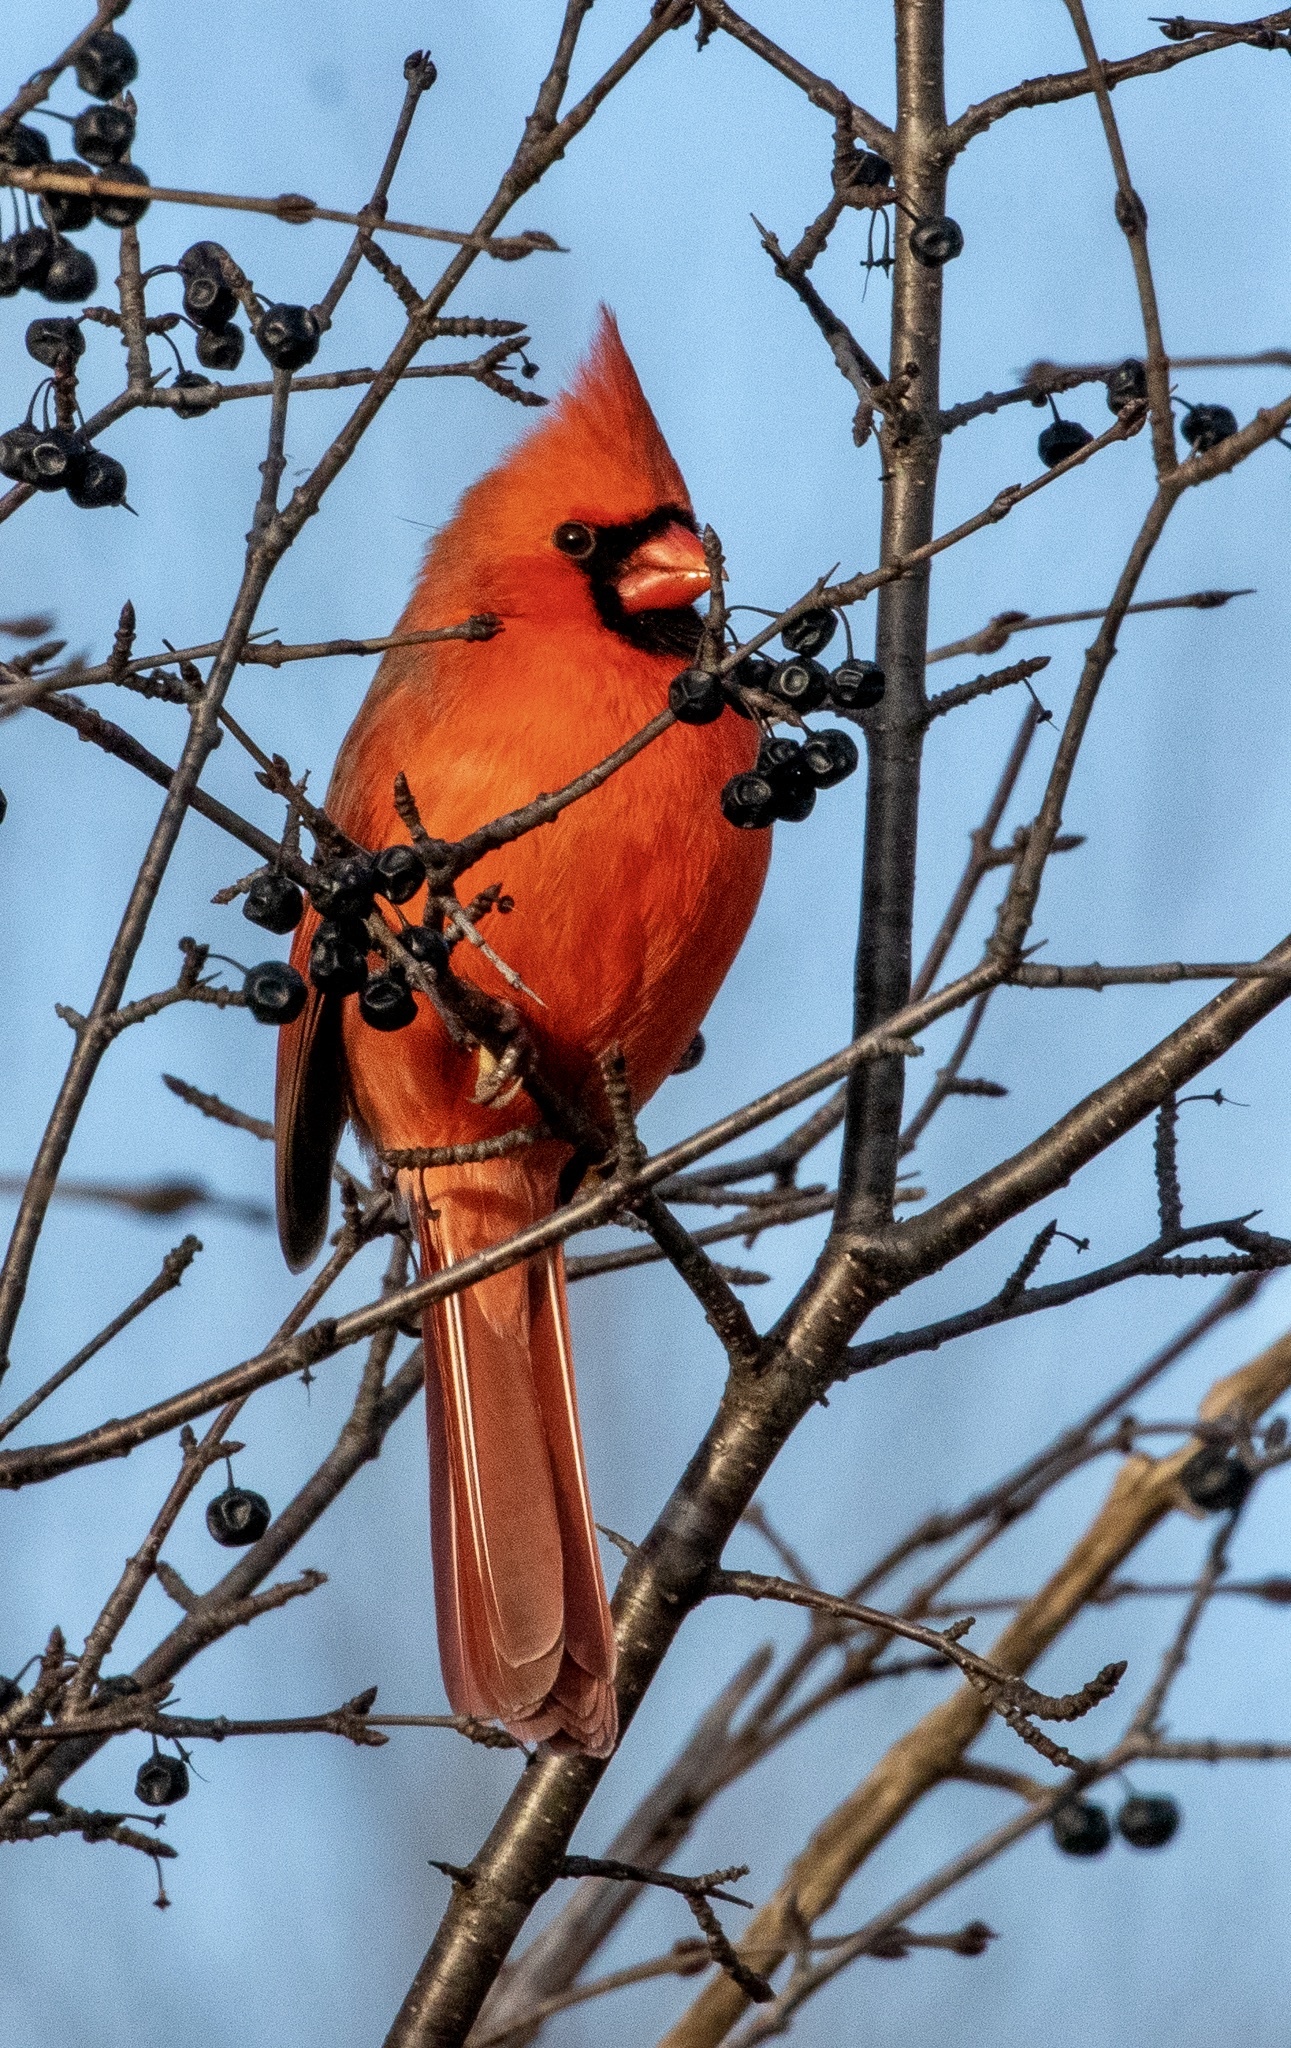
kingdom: Animalia
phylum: Chordata
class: Aves
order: Passeriformes
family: Cardinalidae
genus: Cardinalis
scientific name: Cardinalis cardinalis
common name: Northern cardinal
